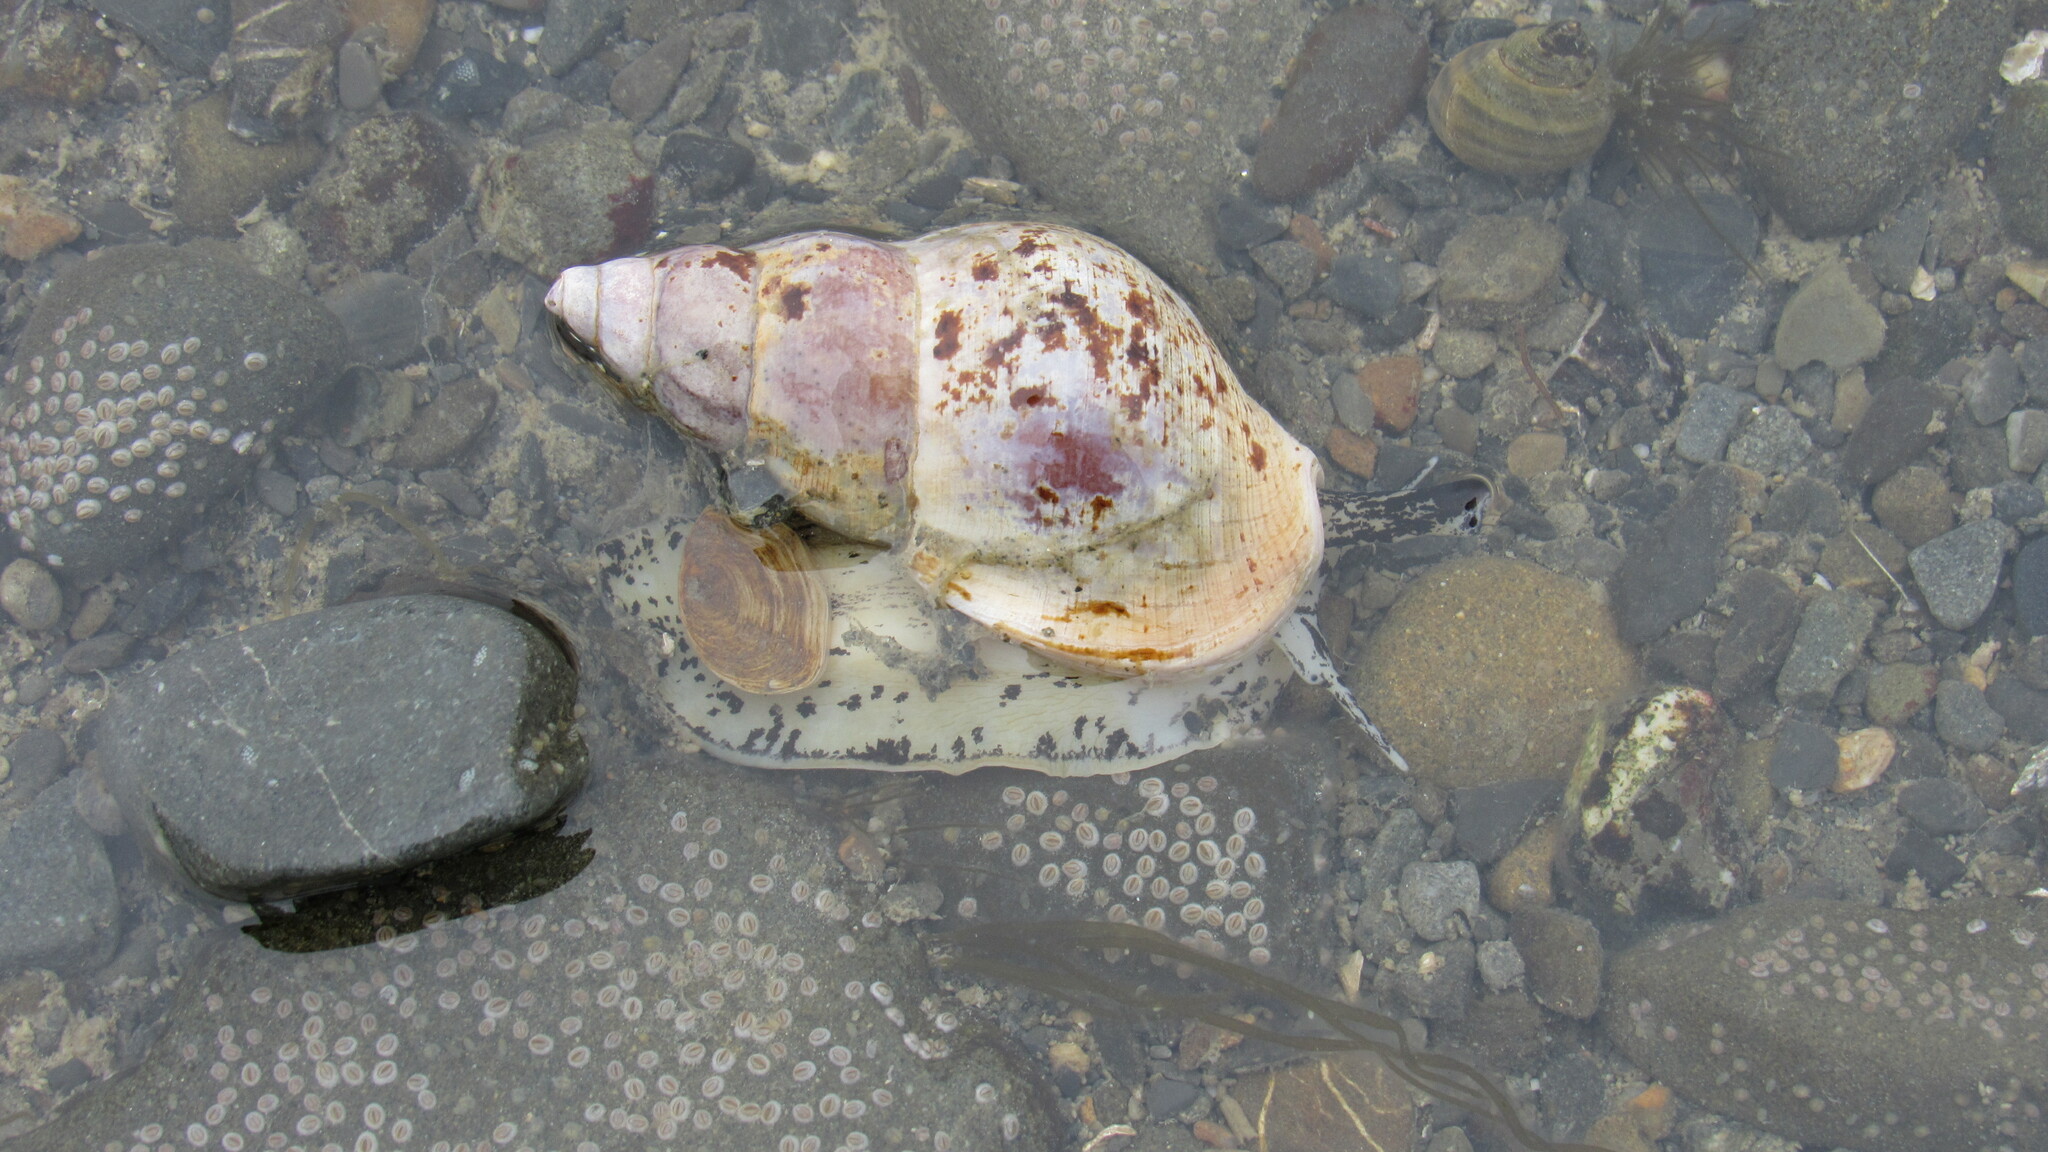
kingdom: Animalia
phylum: Mollusca
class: Gastropoda
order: Neogastropoda
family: Buccinidae
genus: Buccinum
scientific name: Buccinum undatum
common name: Common whelk
